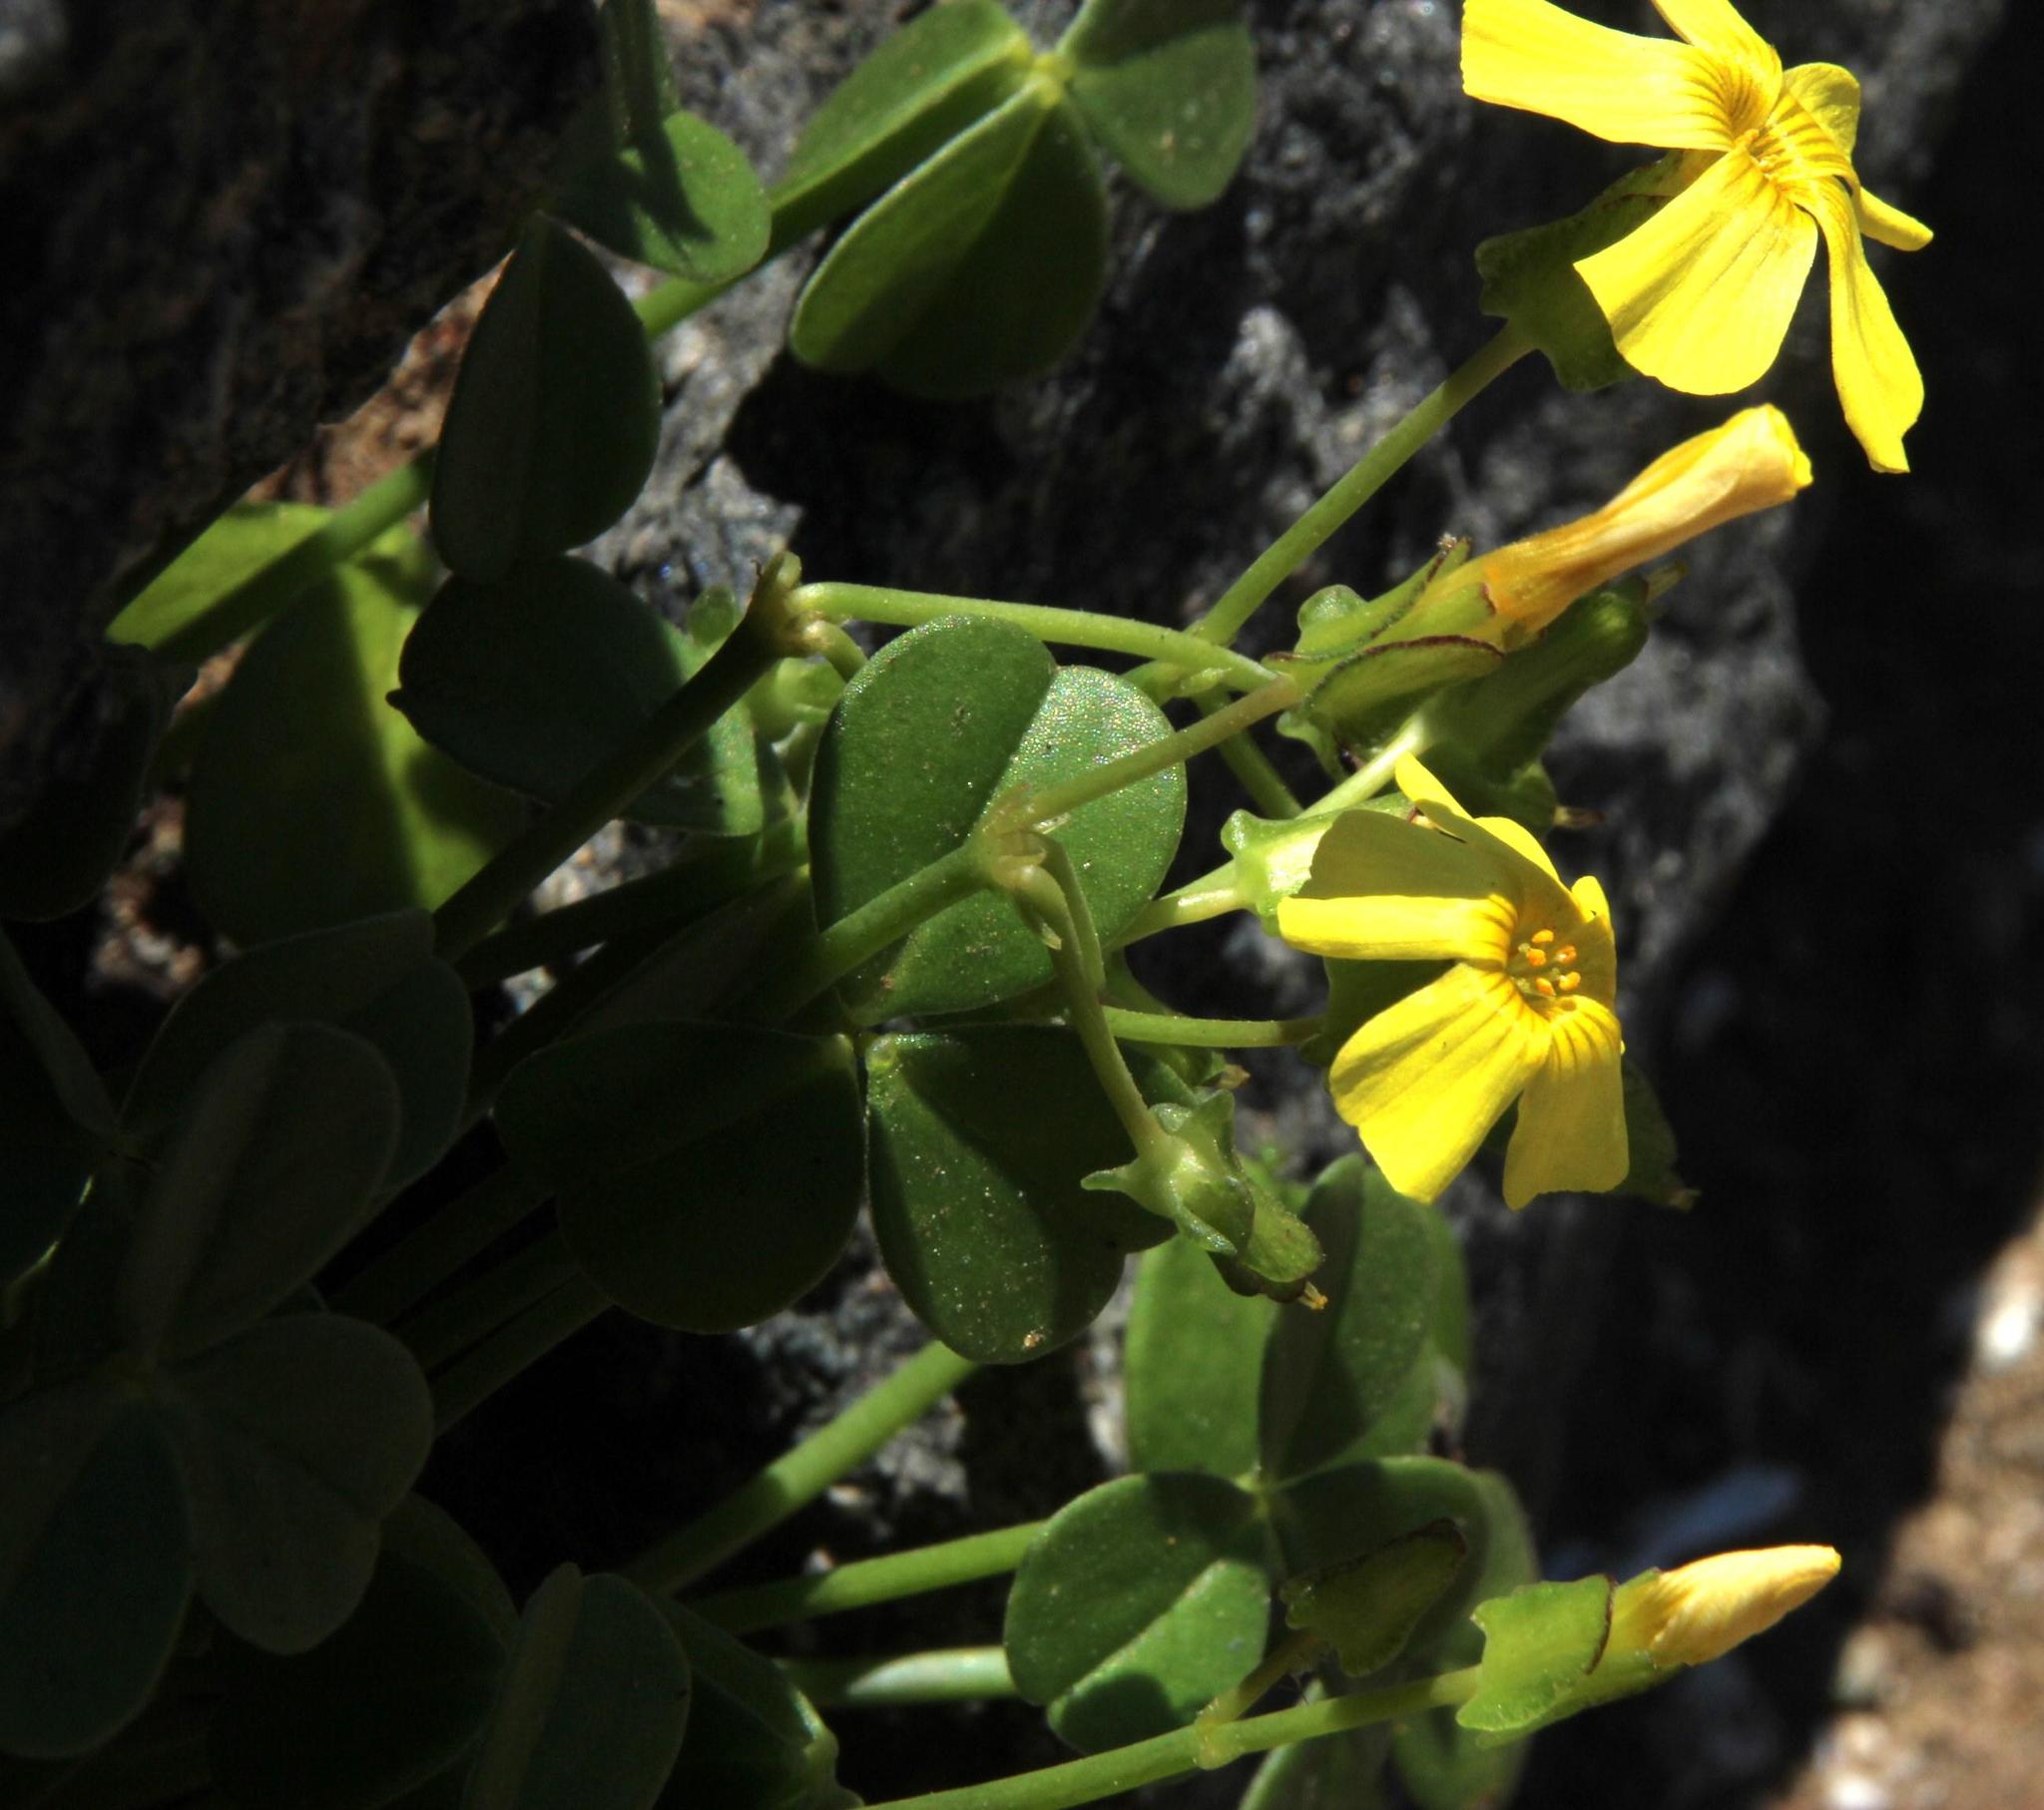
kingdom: Plantae
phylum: Tracheophyta
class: Magnoliopsida
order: Oxalidales
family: Oxalidaceae
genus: Oxalis
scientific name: Oxalis megalorrhiza
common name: Fleshy yellow-sorrel
